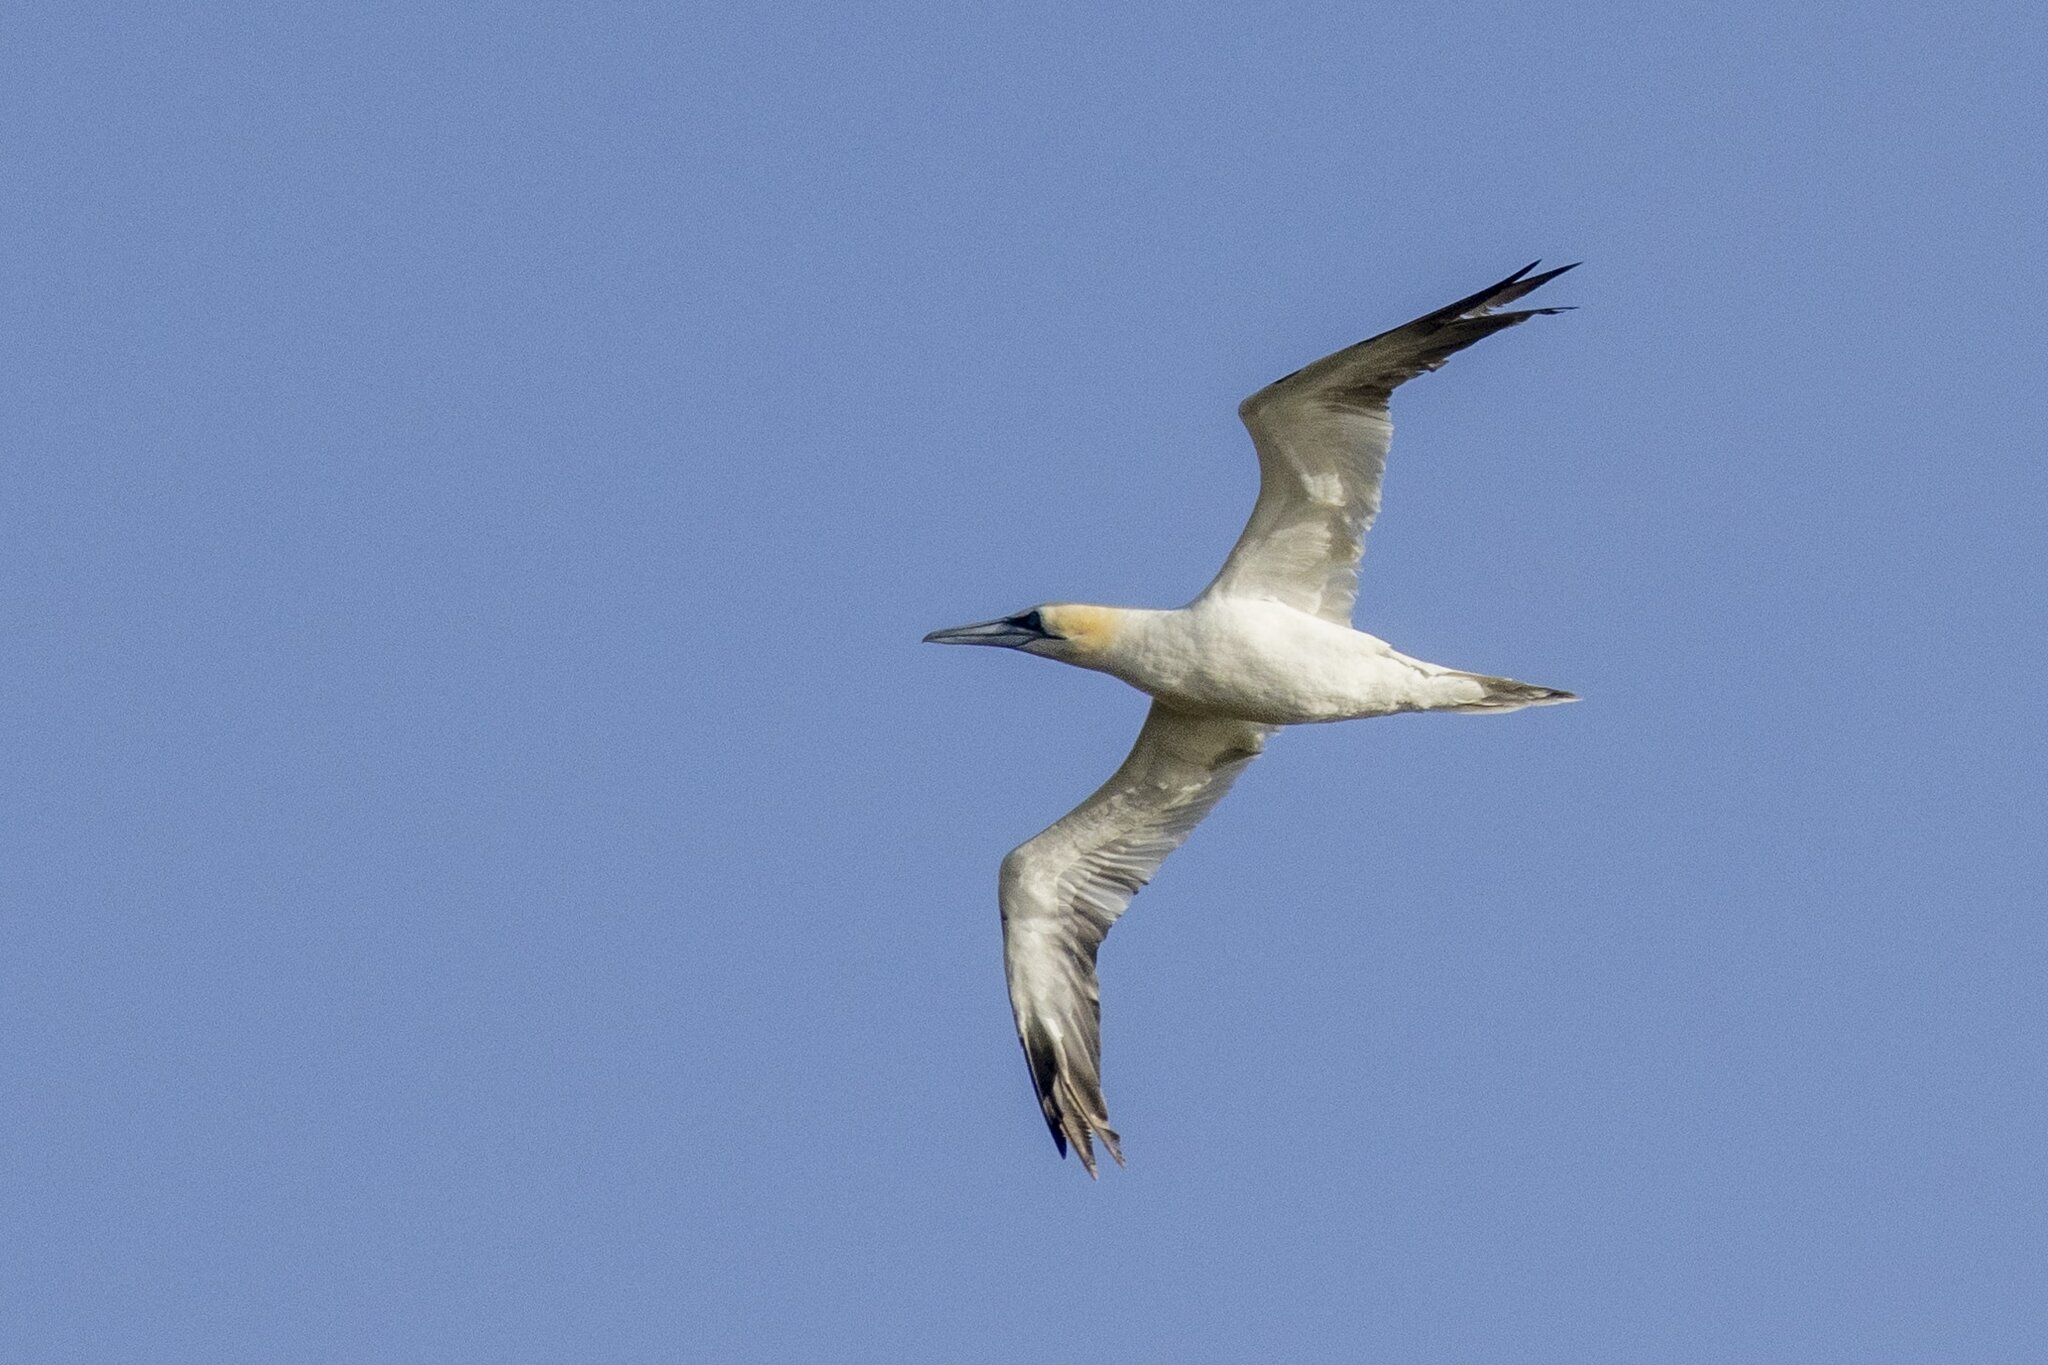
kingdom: Animalia
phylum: Chordata
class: Aves
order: Suliformes
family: Sulidae
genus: Morus
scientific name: Morus bassanus
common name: Northern gannet
